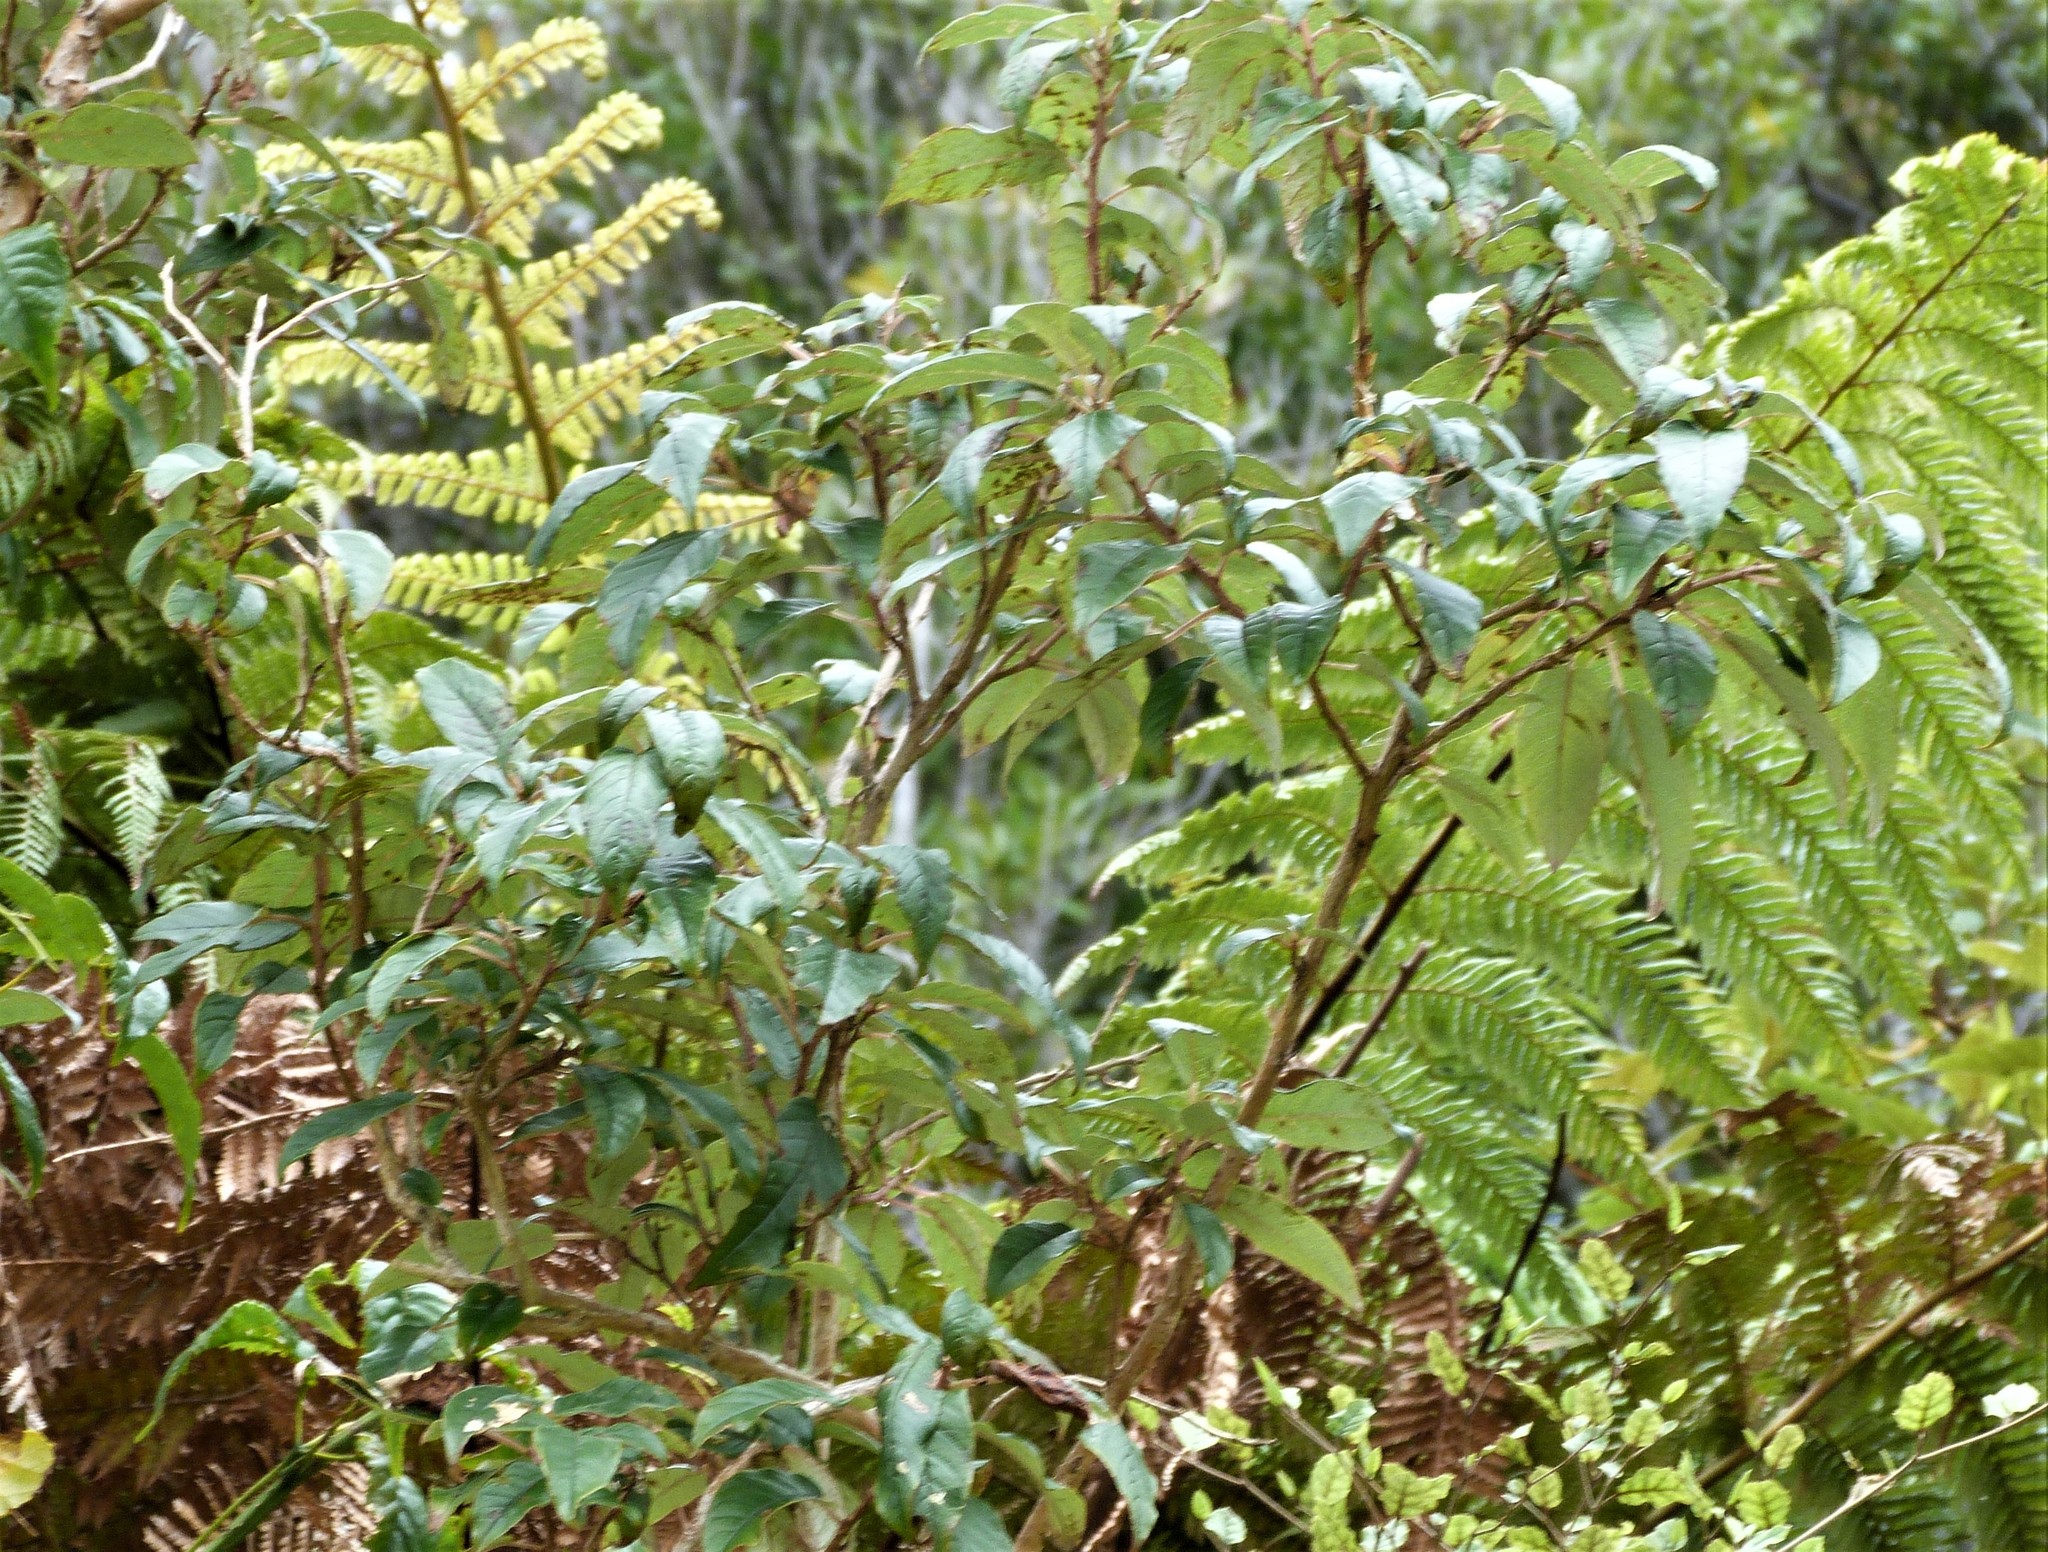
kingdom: Plantae
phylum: Tracheophyta
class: Magnoliopsida
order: Myrtales
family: Onagraceae
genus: Fuchsia
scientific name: Fuchsia excorticata
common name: Tree fuchsia
